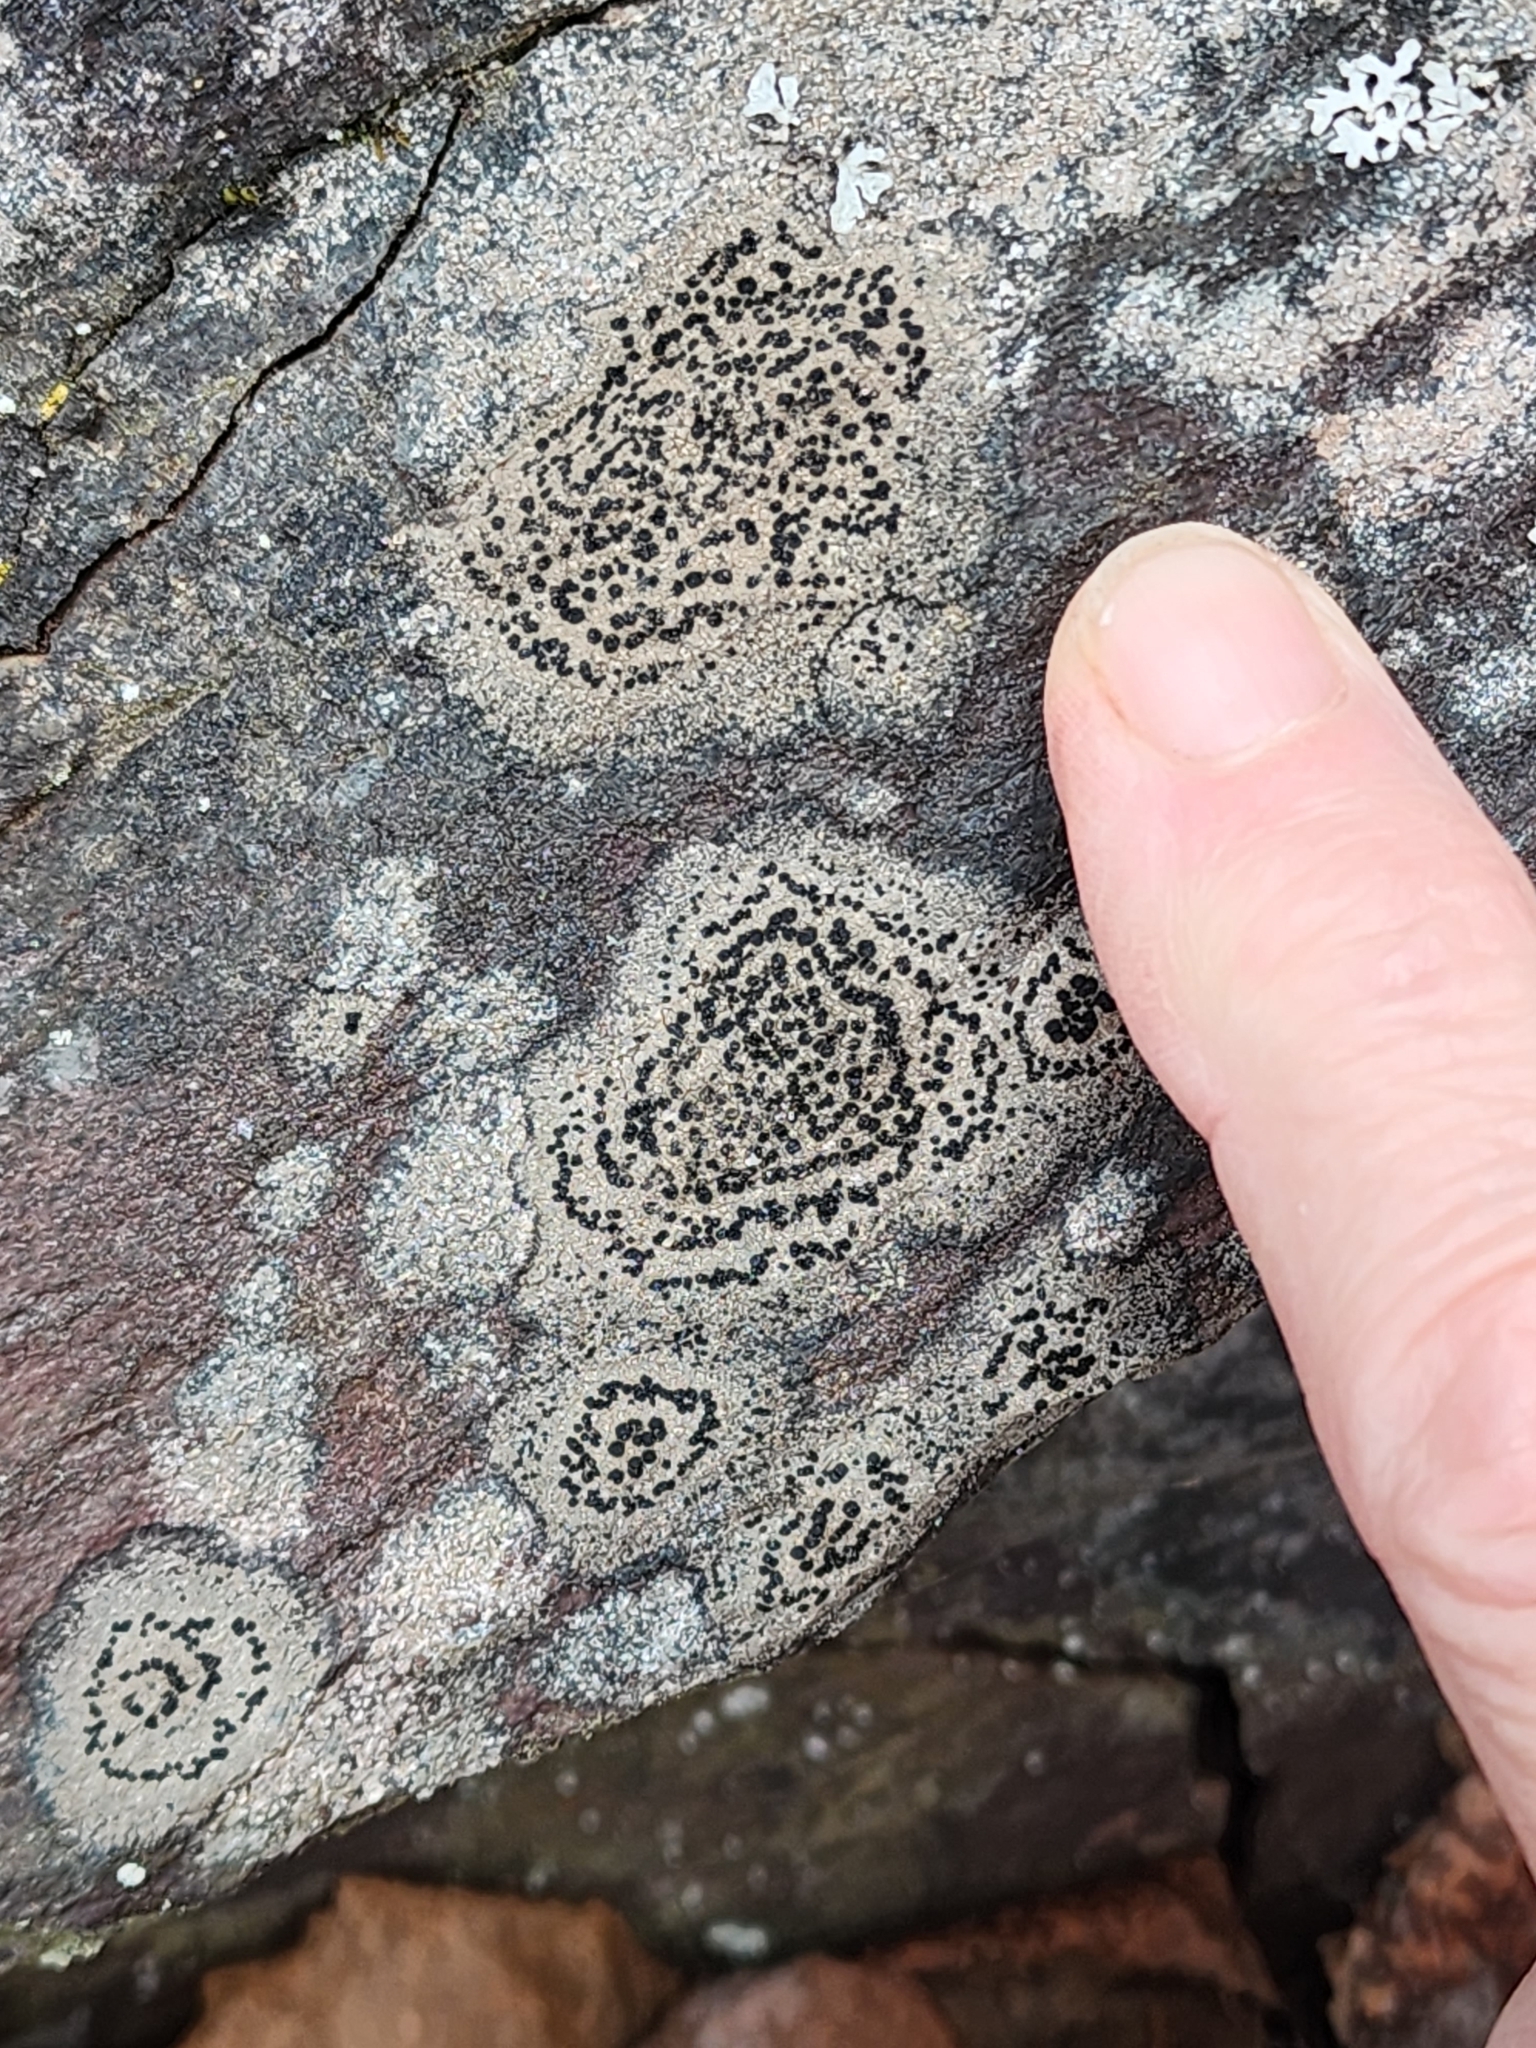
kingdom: Fungi
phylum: Ascomycota
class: Lecanoromycetes
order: Lecideales
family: Lecideaceae
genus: Porpidia
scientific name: Porpidia crustulata
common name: Concentric boulder lichen
